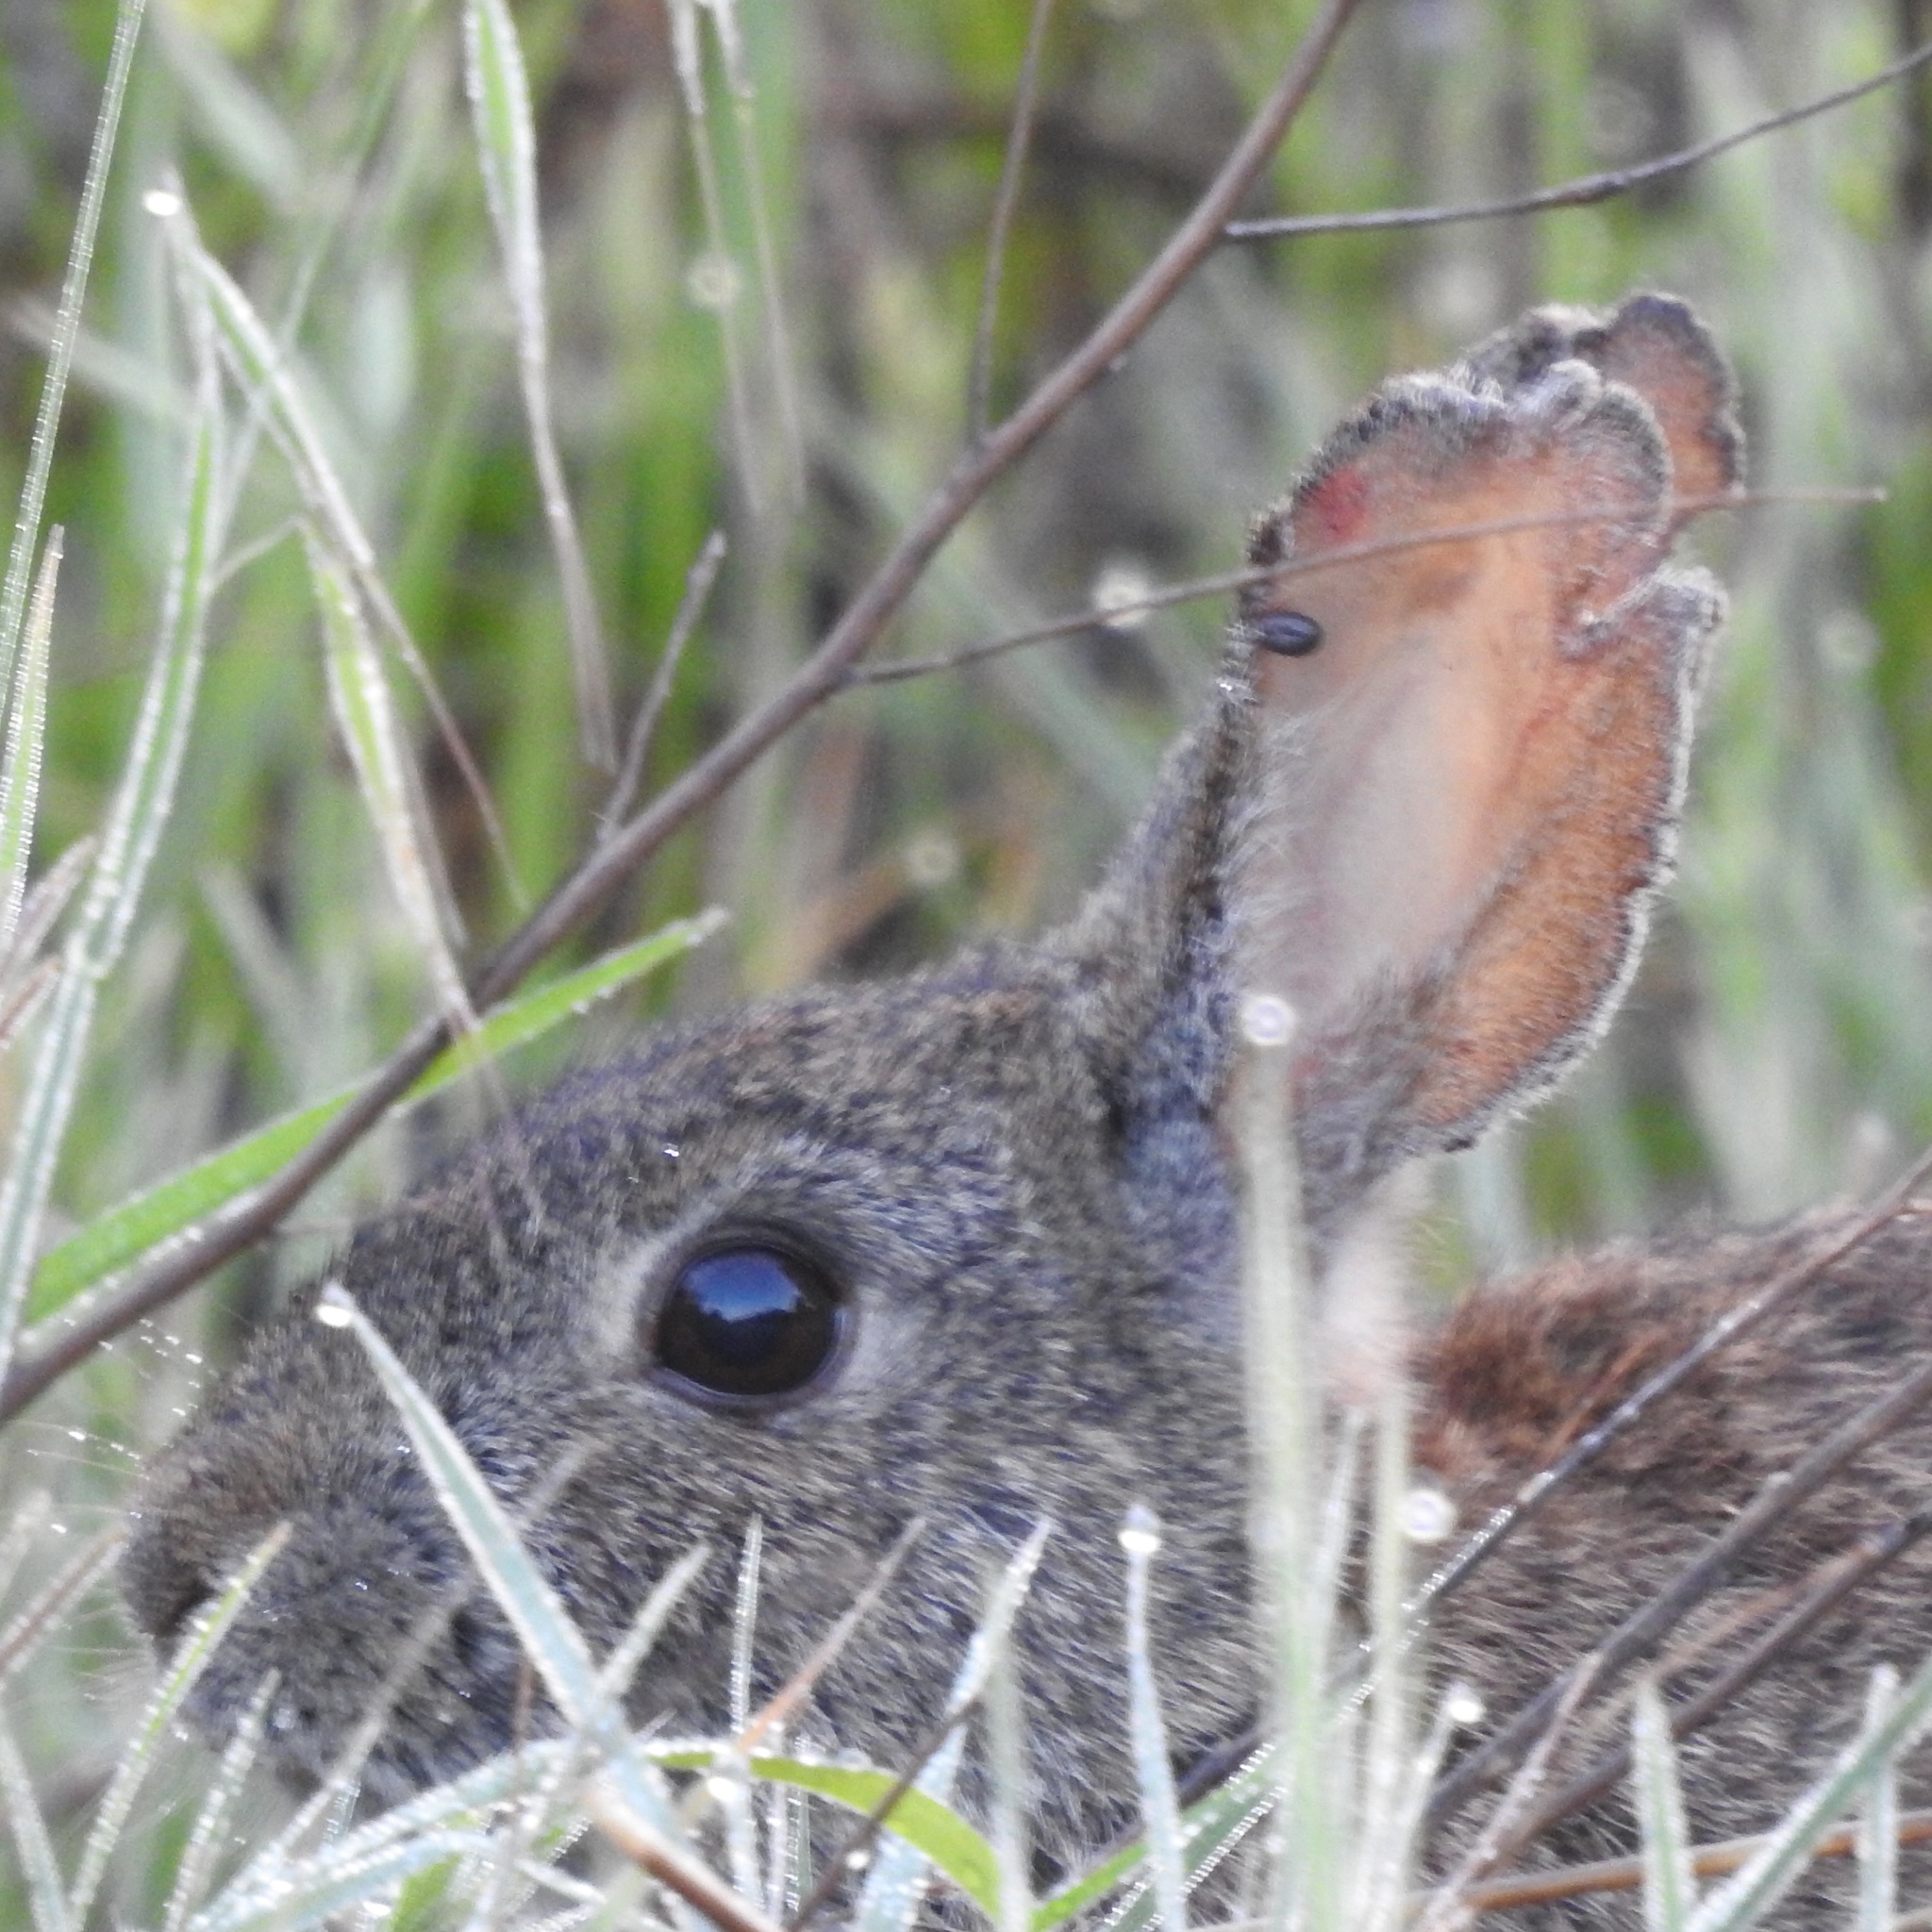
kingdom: Animalia
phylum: Chordata
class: Mammalia
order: Lagomorpha
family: Leporidae
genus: Sylvilagus
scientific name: Sylvilagus bachmani
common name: Brush rabbit
